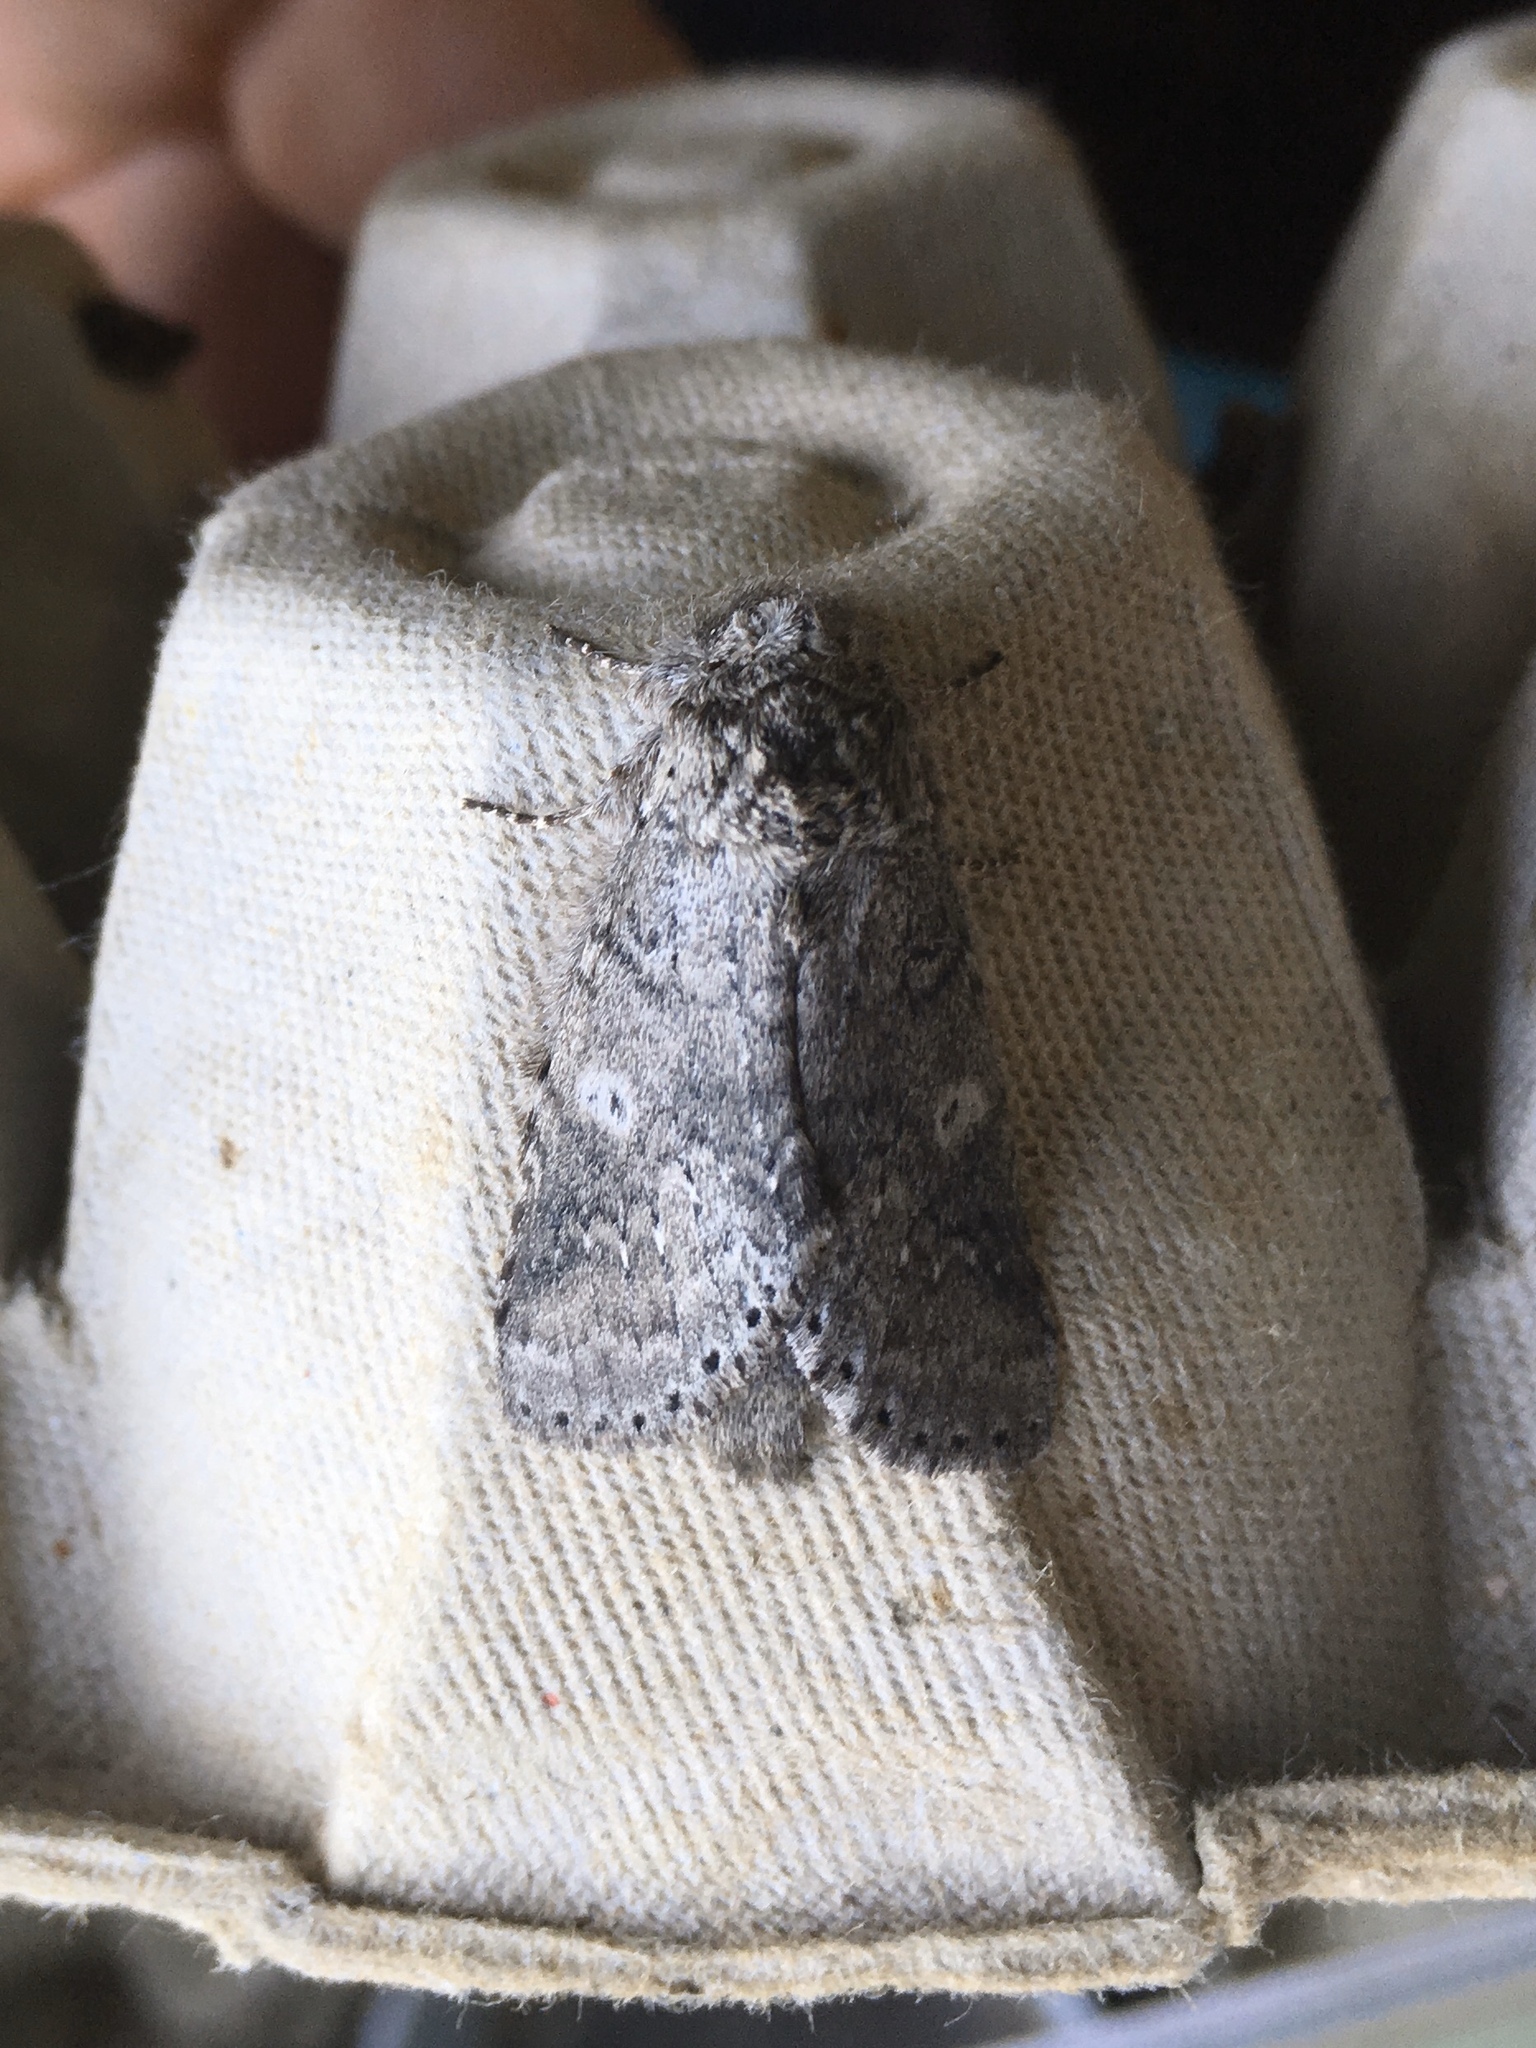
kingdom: Animalia
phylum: Arthropoda
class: Insecta
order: Lepidoptera
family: Notodontidae
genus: Lochmaeus
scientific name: Lochmaeus manteo
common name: Variable oakleaf caterpillar moth
